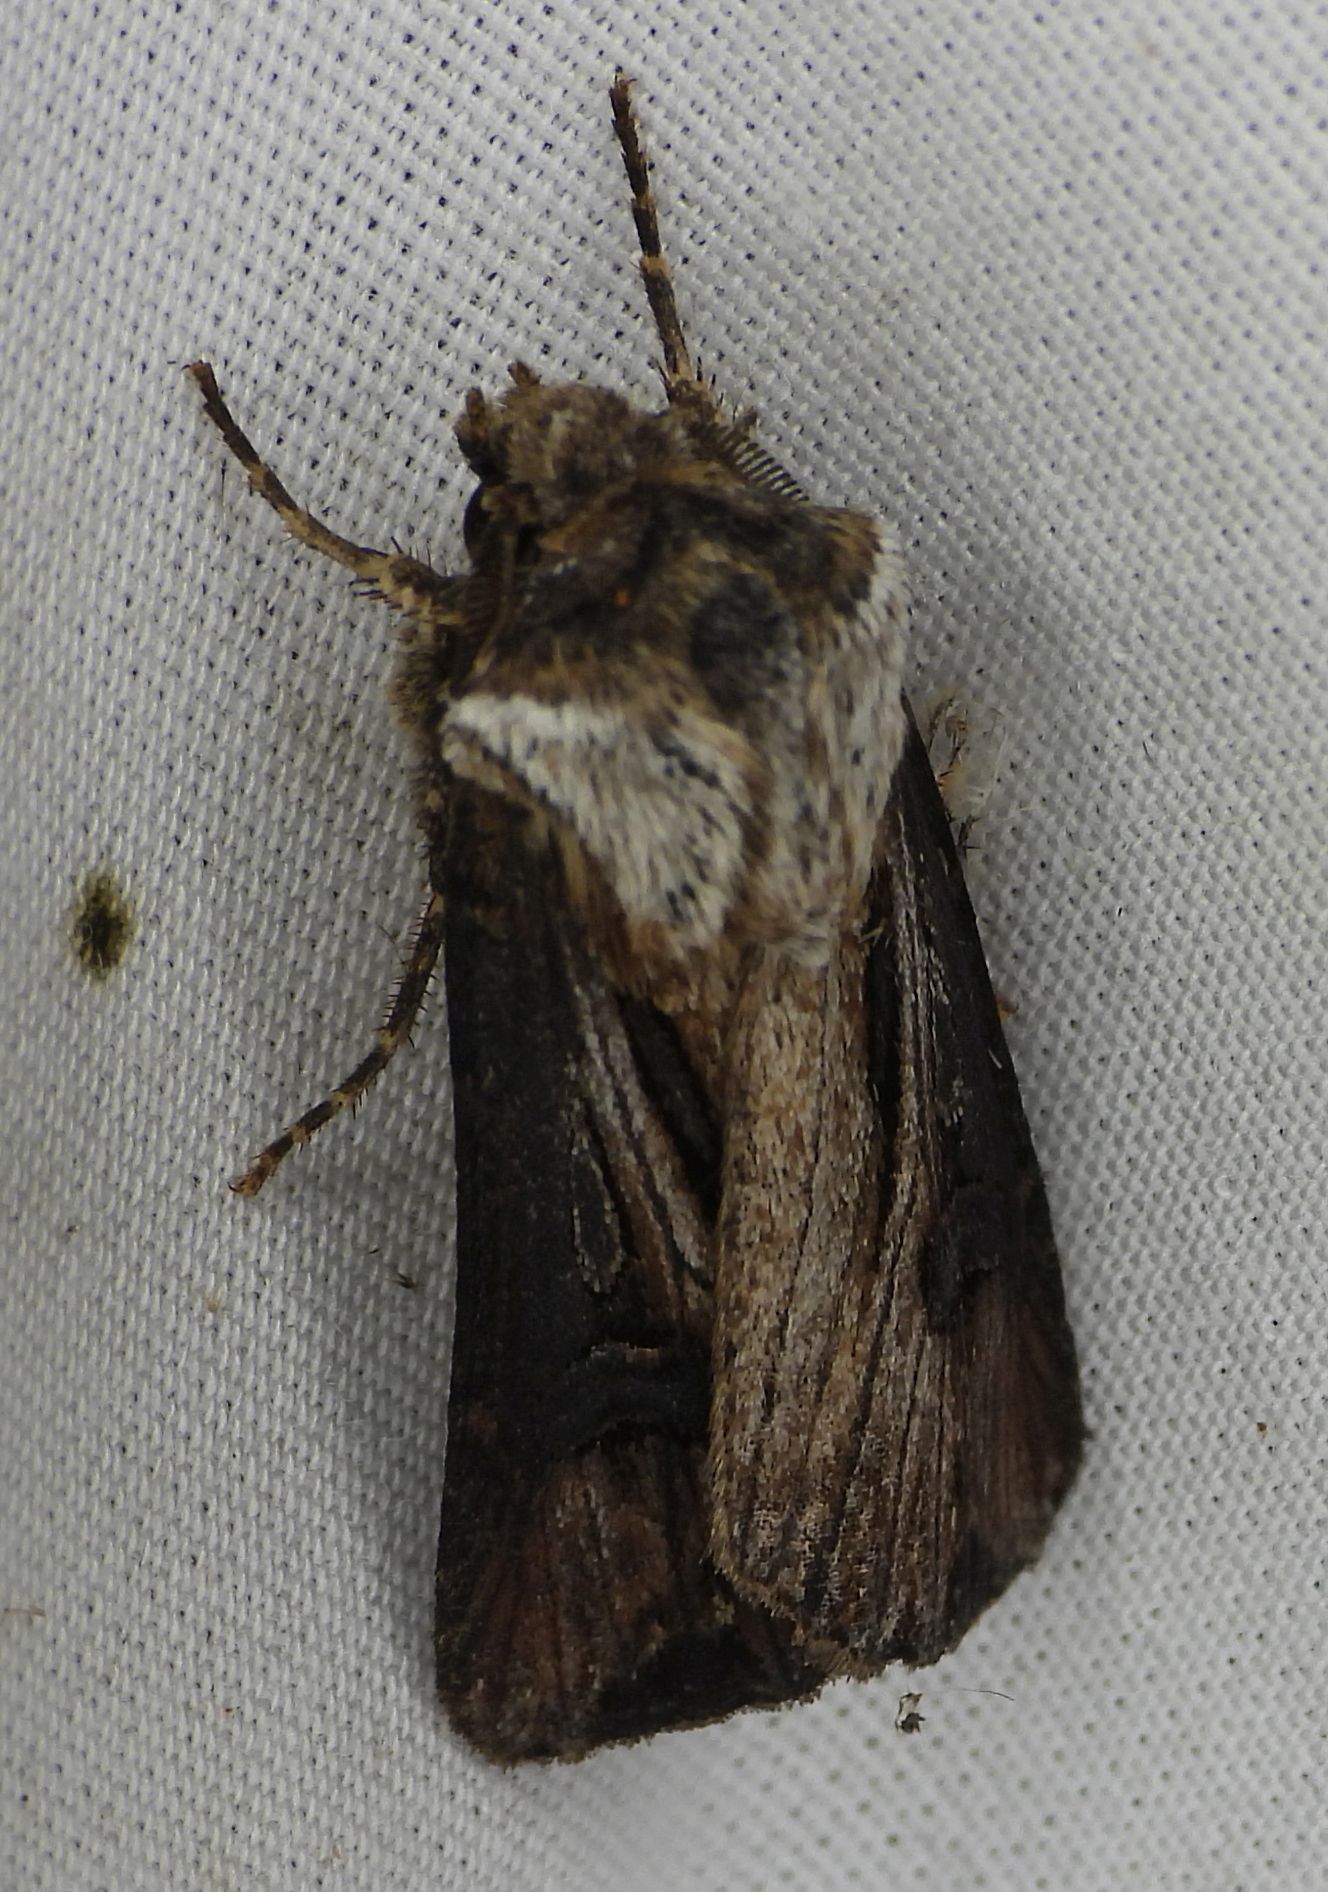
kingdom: Animalia
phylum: Arthropoda
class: Insecta
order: Lepidoptera
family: Noctuidae
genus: Agrotis
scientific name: Agrotis venerabilis
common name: Venerable dart
